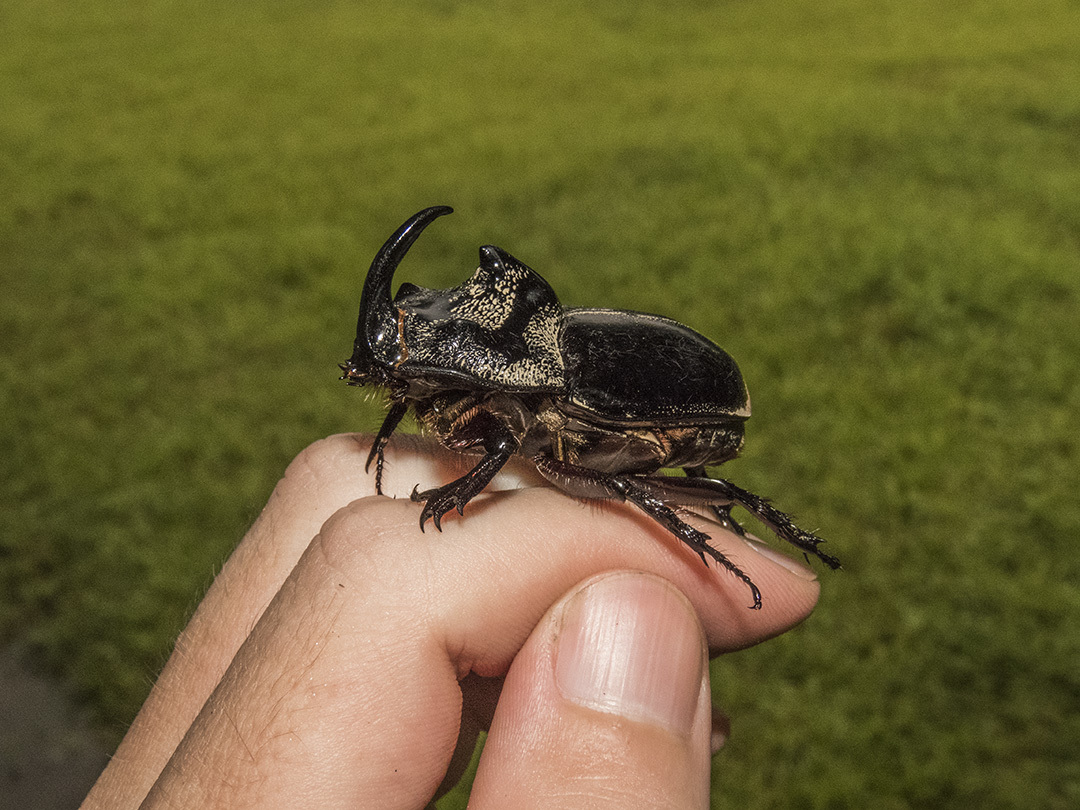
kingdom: Animalia
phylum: Arthropoda
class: Insecta
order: Coleoptera
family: Scarabaeidae
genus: Trichogomphus
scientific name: Trichogomphus simson
